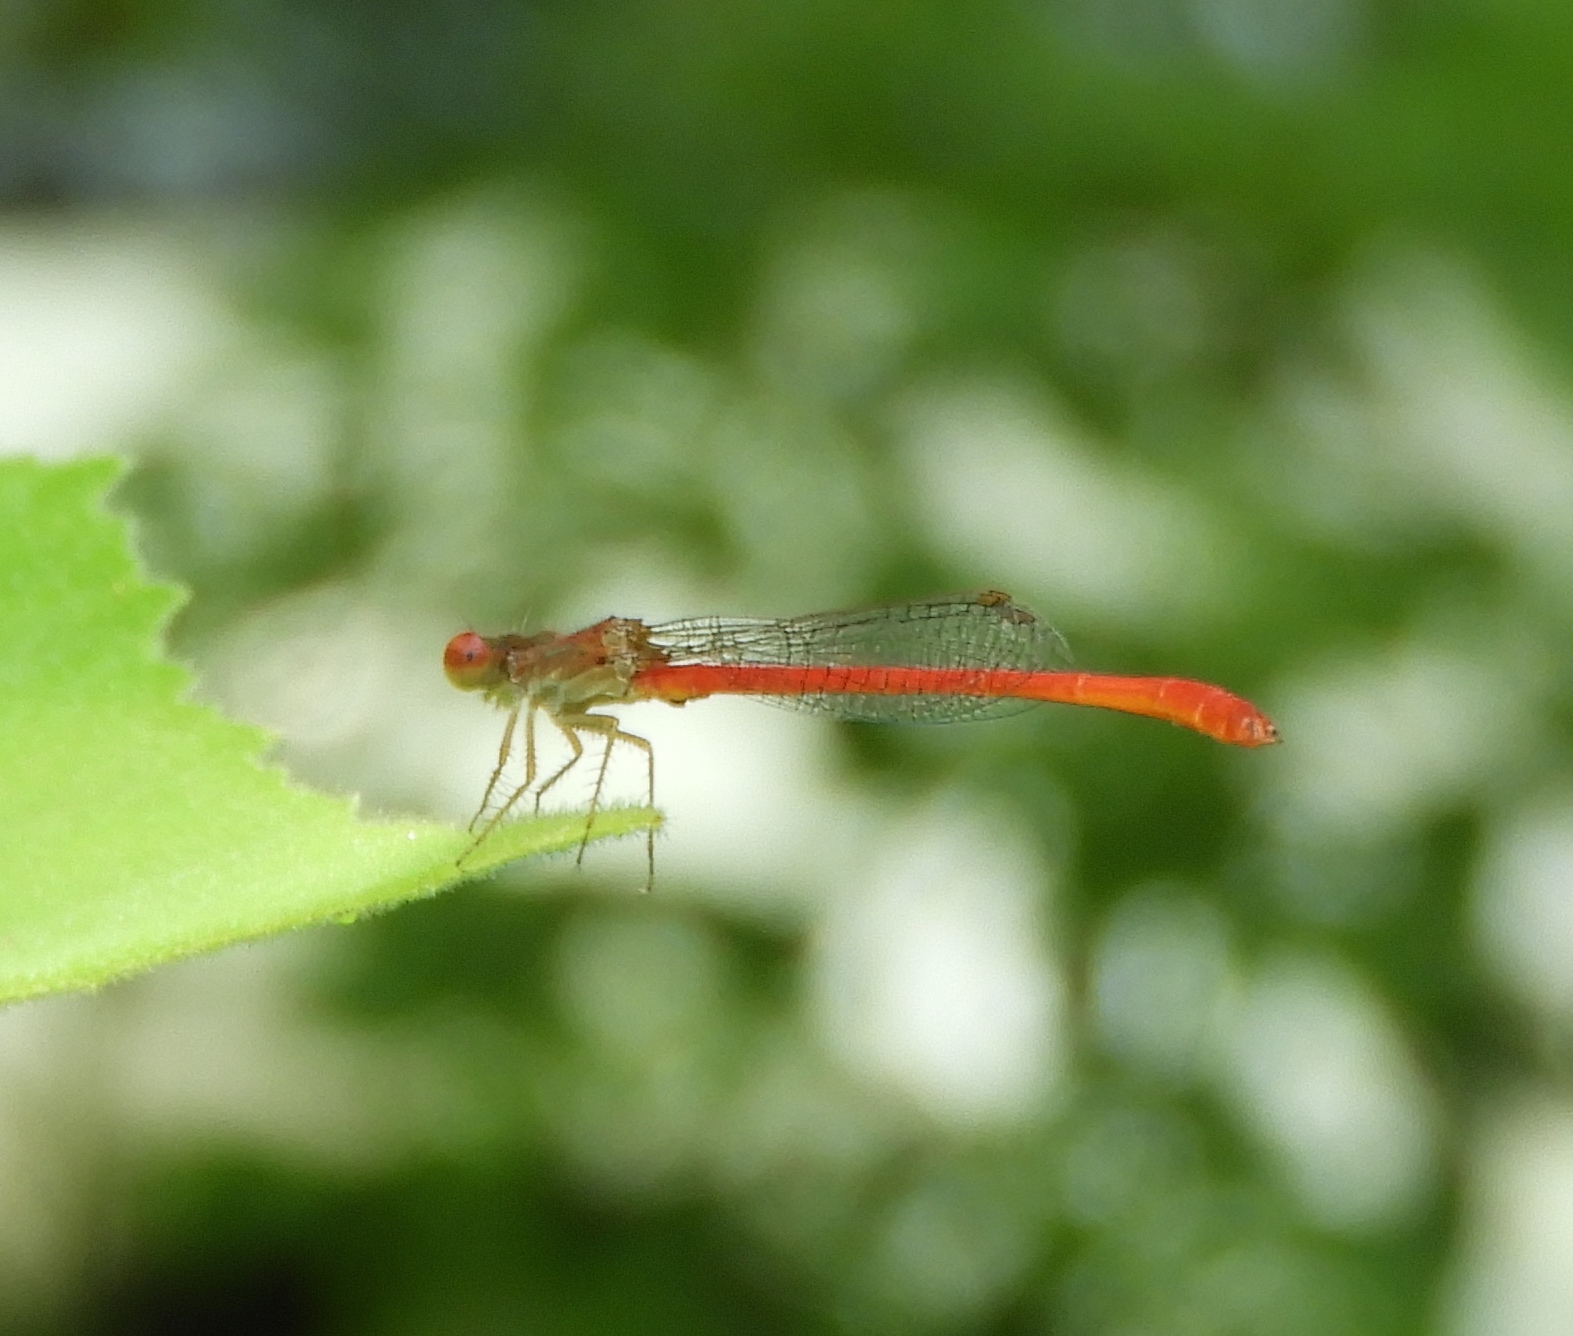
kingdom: Animalia
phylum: Arthropoda
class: Insecta
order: Odonata
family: Coenagrionidae
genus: Telebasis
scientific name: Telebasis salva
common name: Desert firetail
